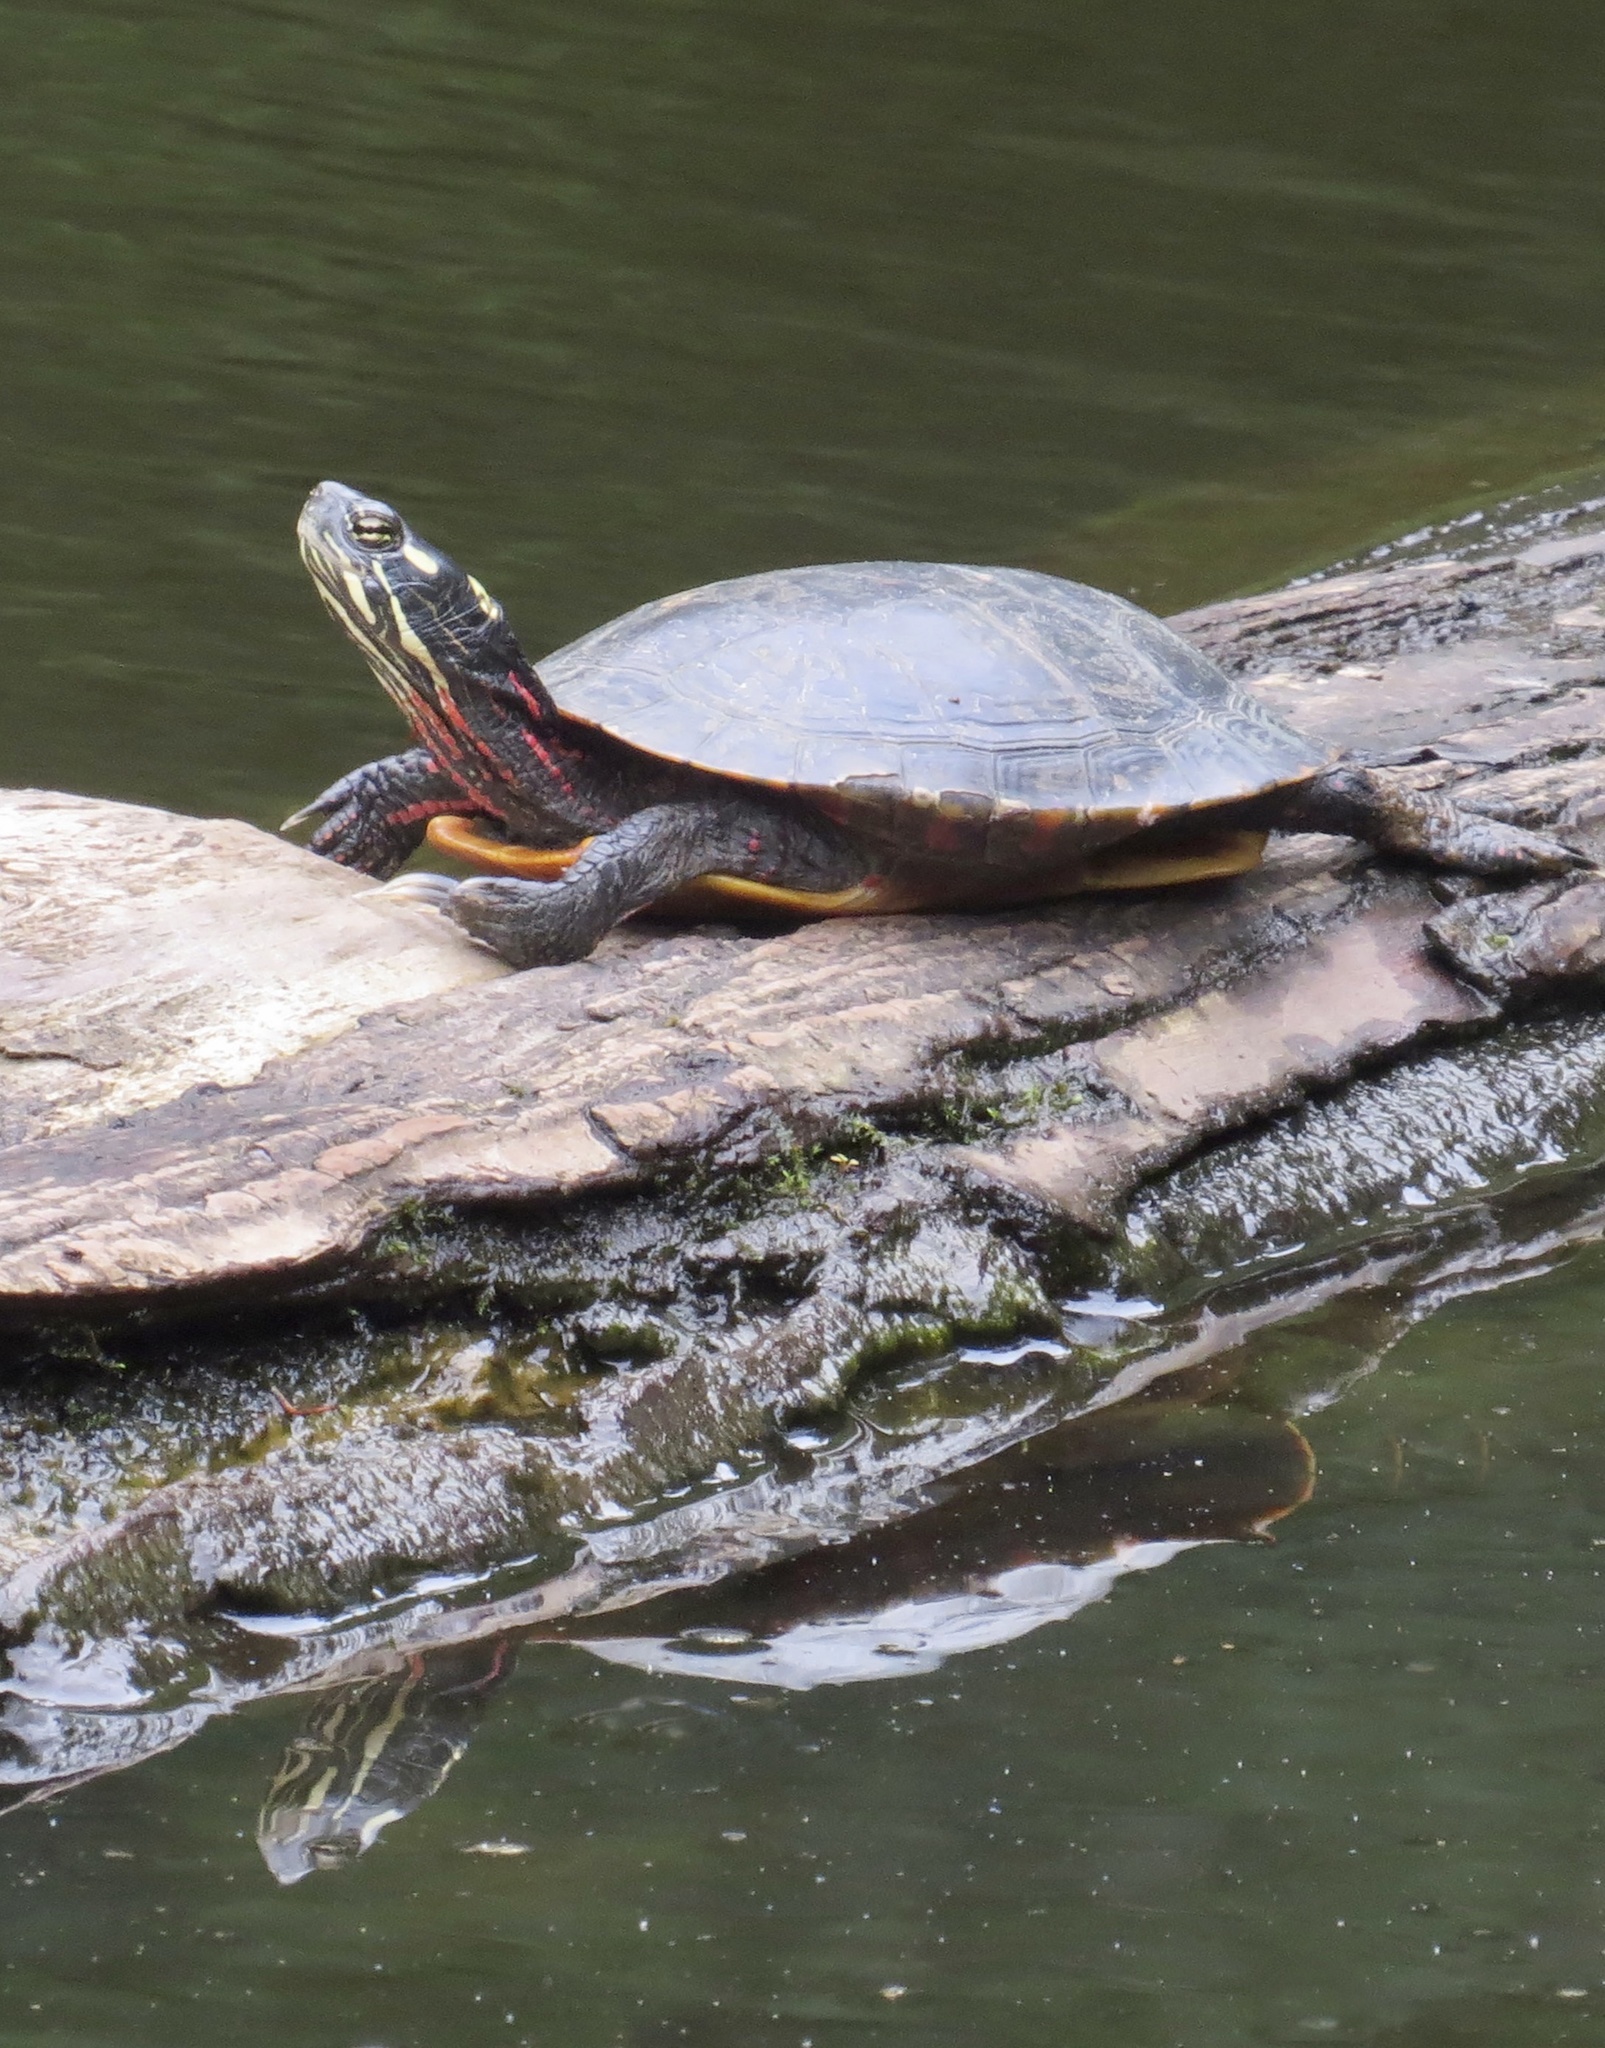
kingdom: Animalia
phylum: Chordata
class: Testudines
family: Emydidae
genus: Chrysemys
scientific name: Chrysemys picta
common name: Painted turtle
